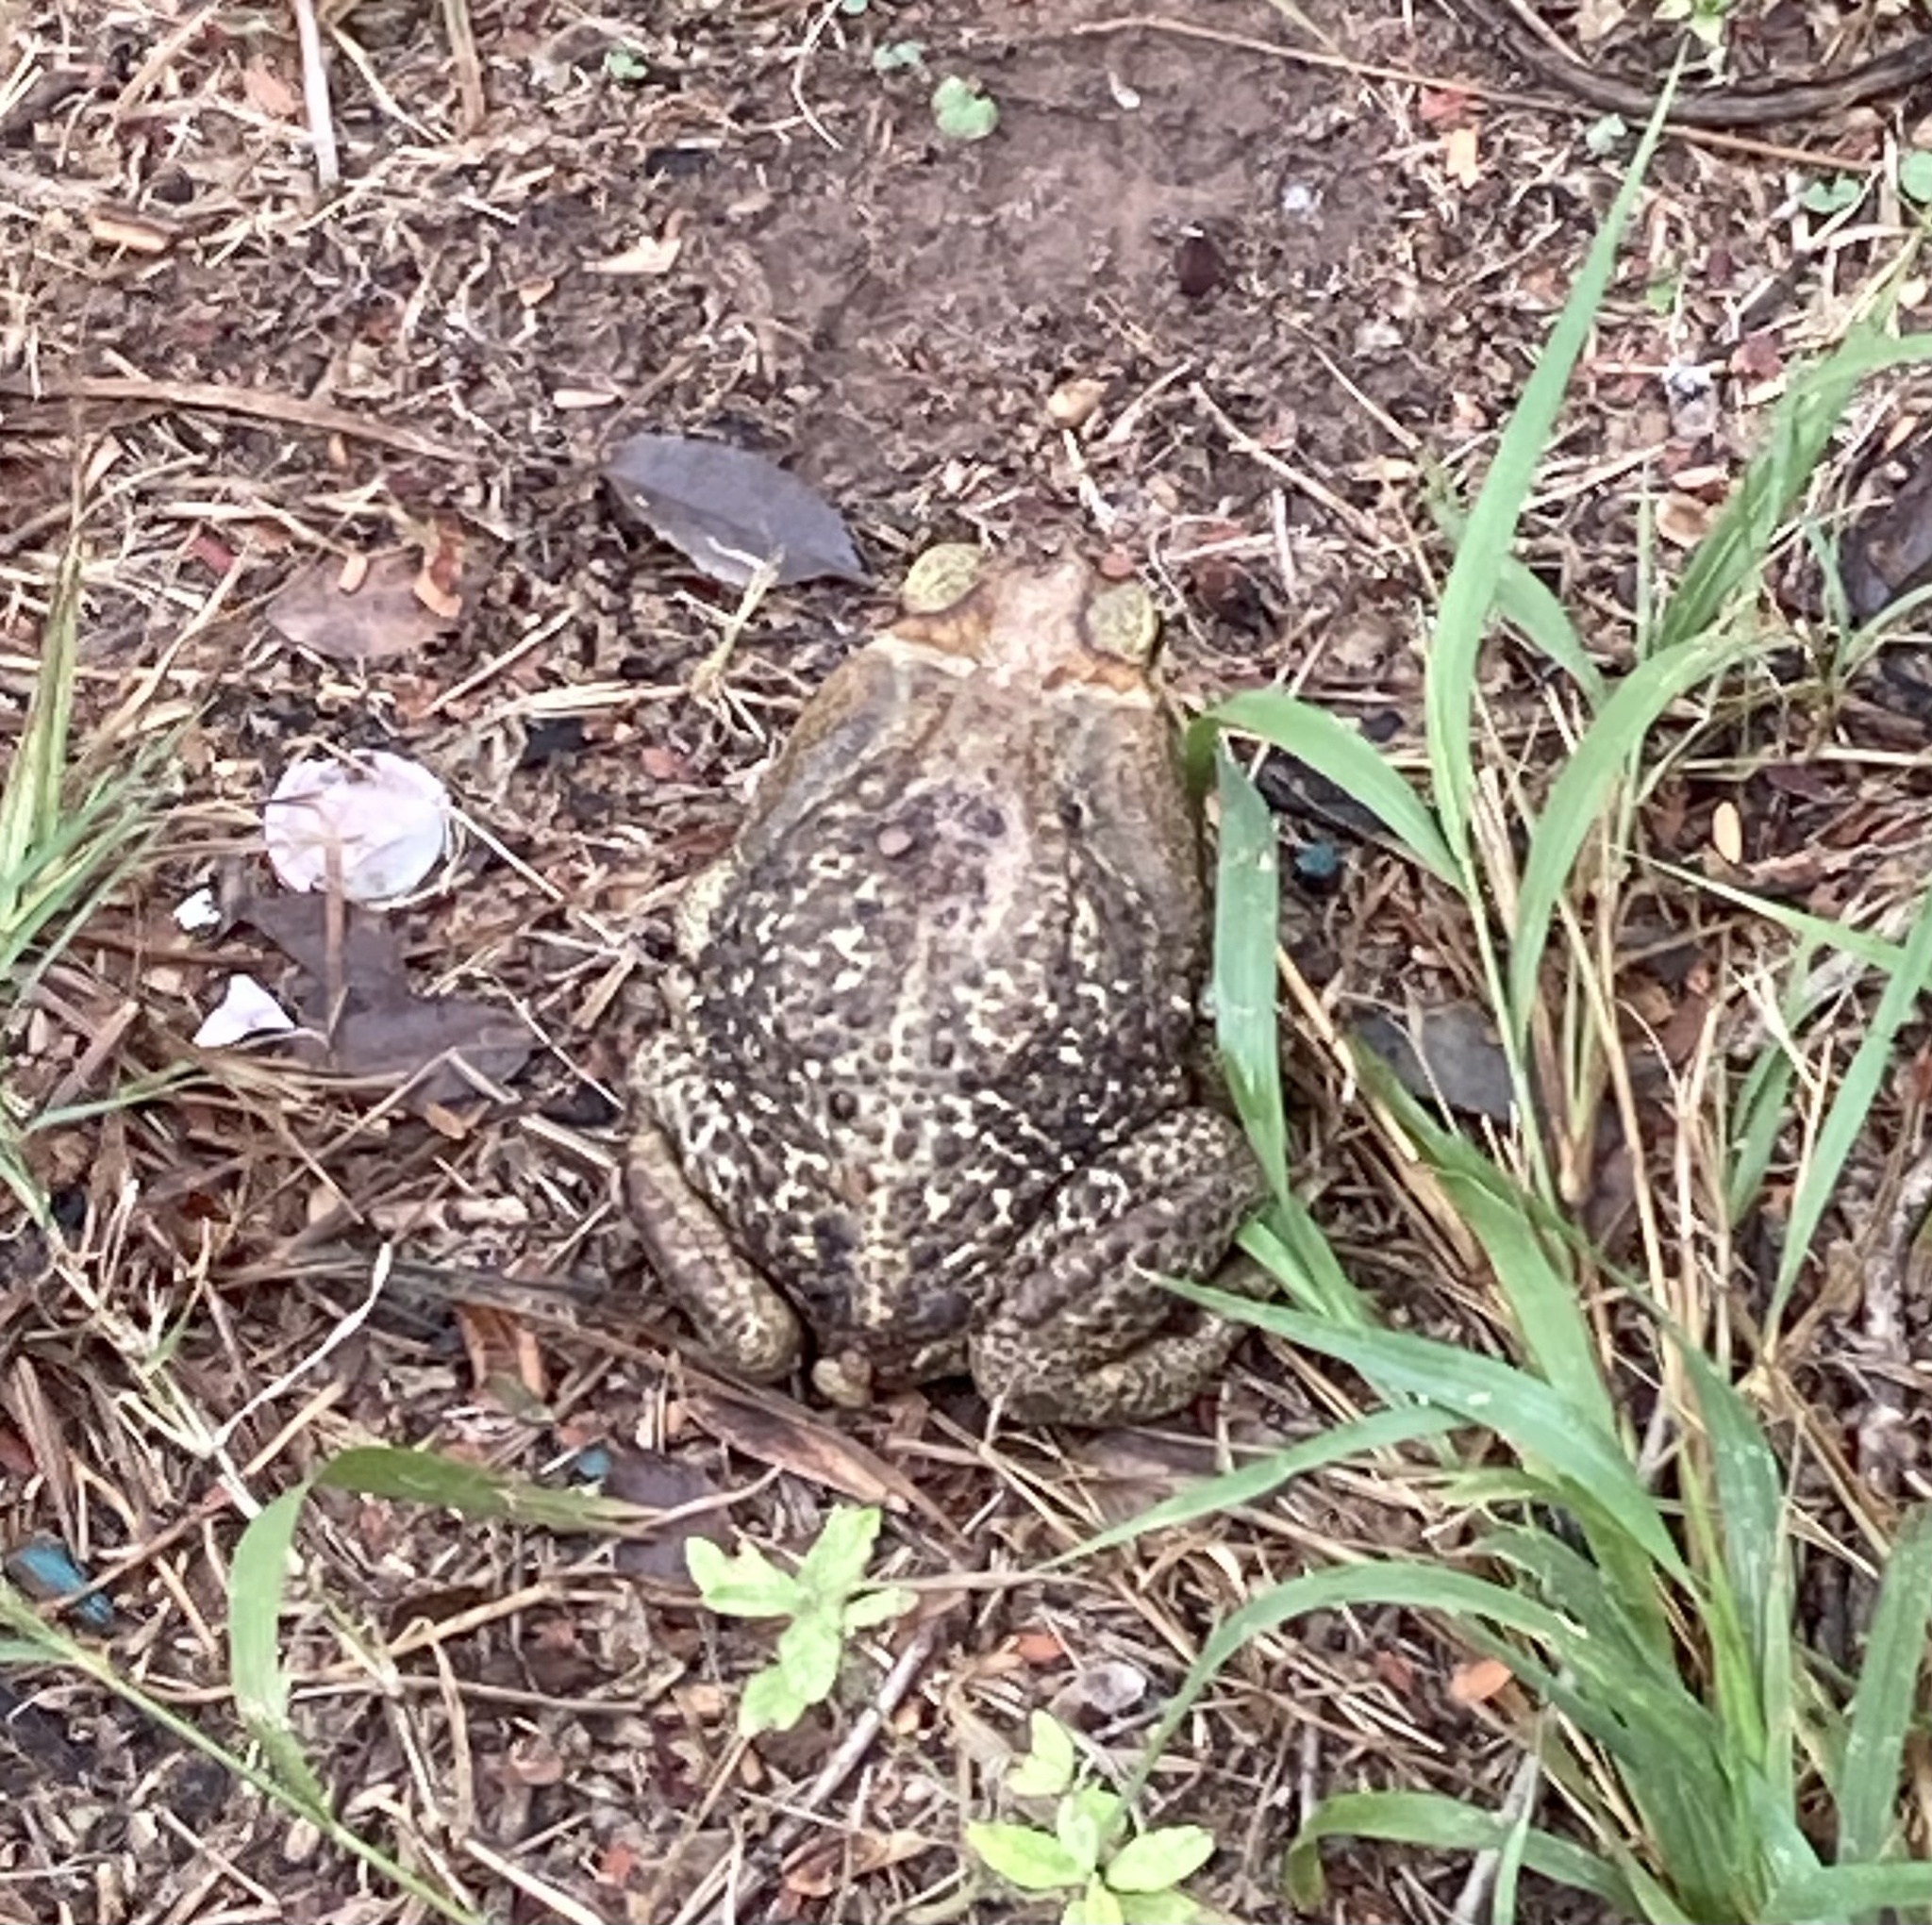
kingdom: Animalia
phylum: Chordata
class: Amphibia
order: Anura
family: Bufonidae
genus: Rhinella
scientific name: Rhinella diptycha
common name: Cope's toad
